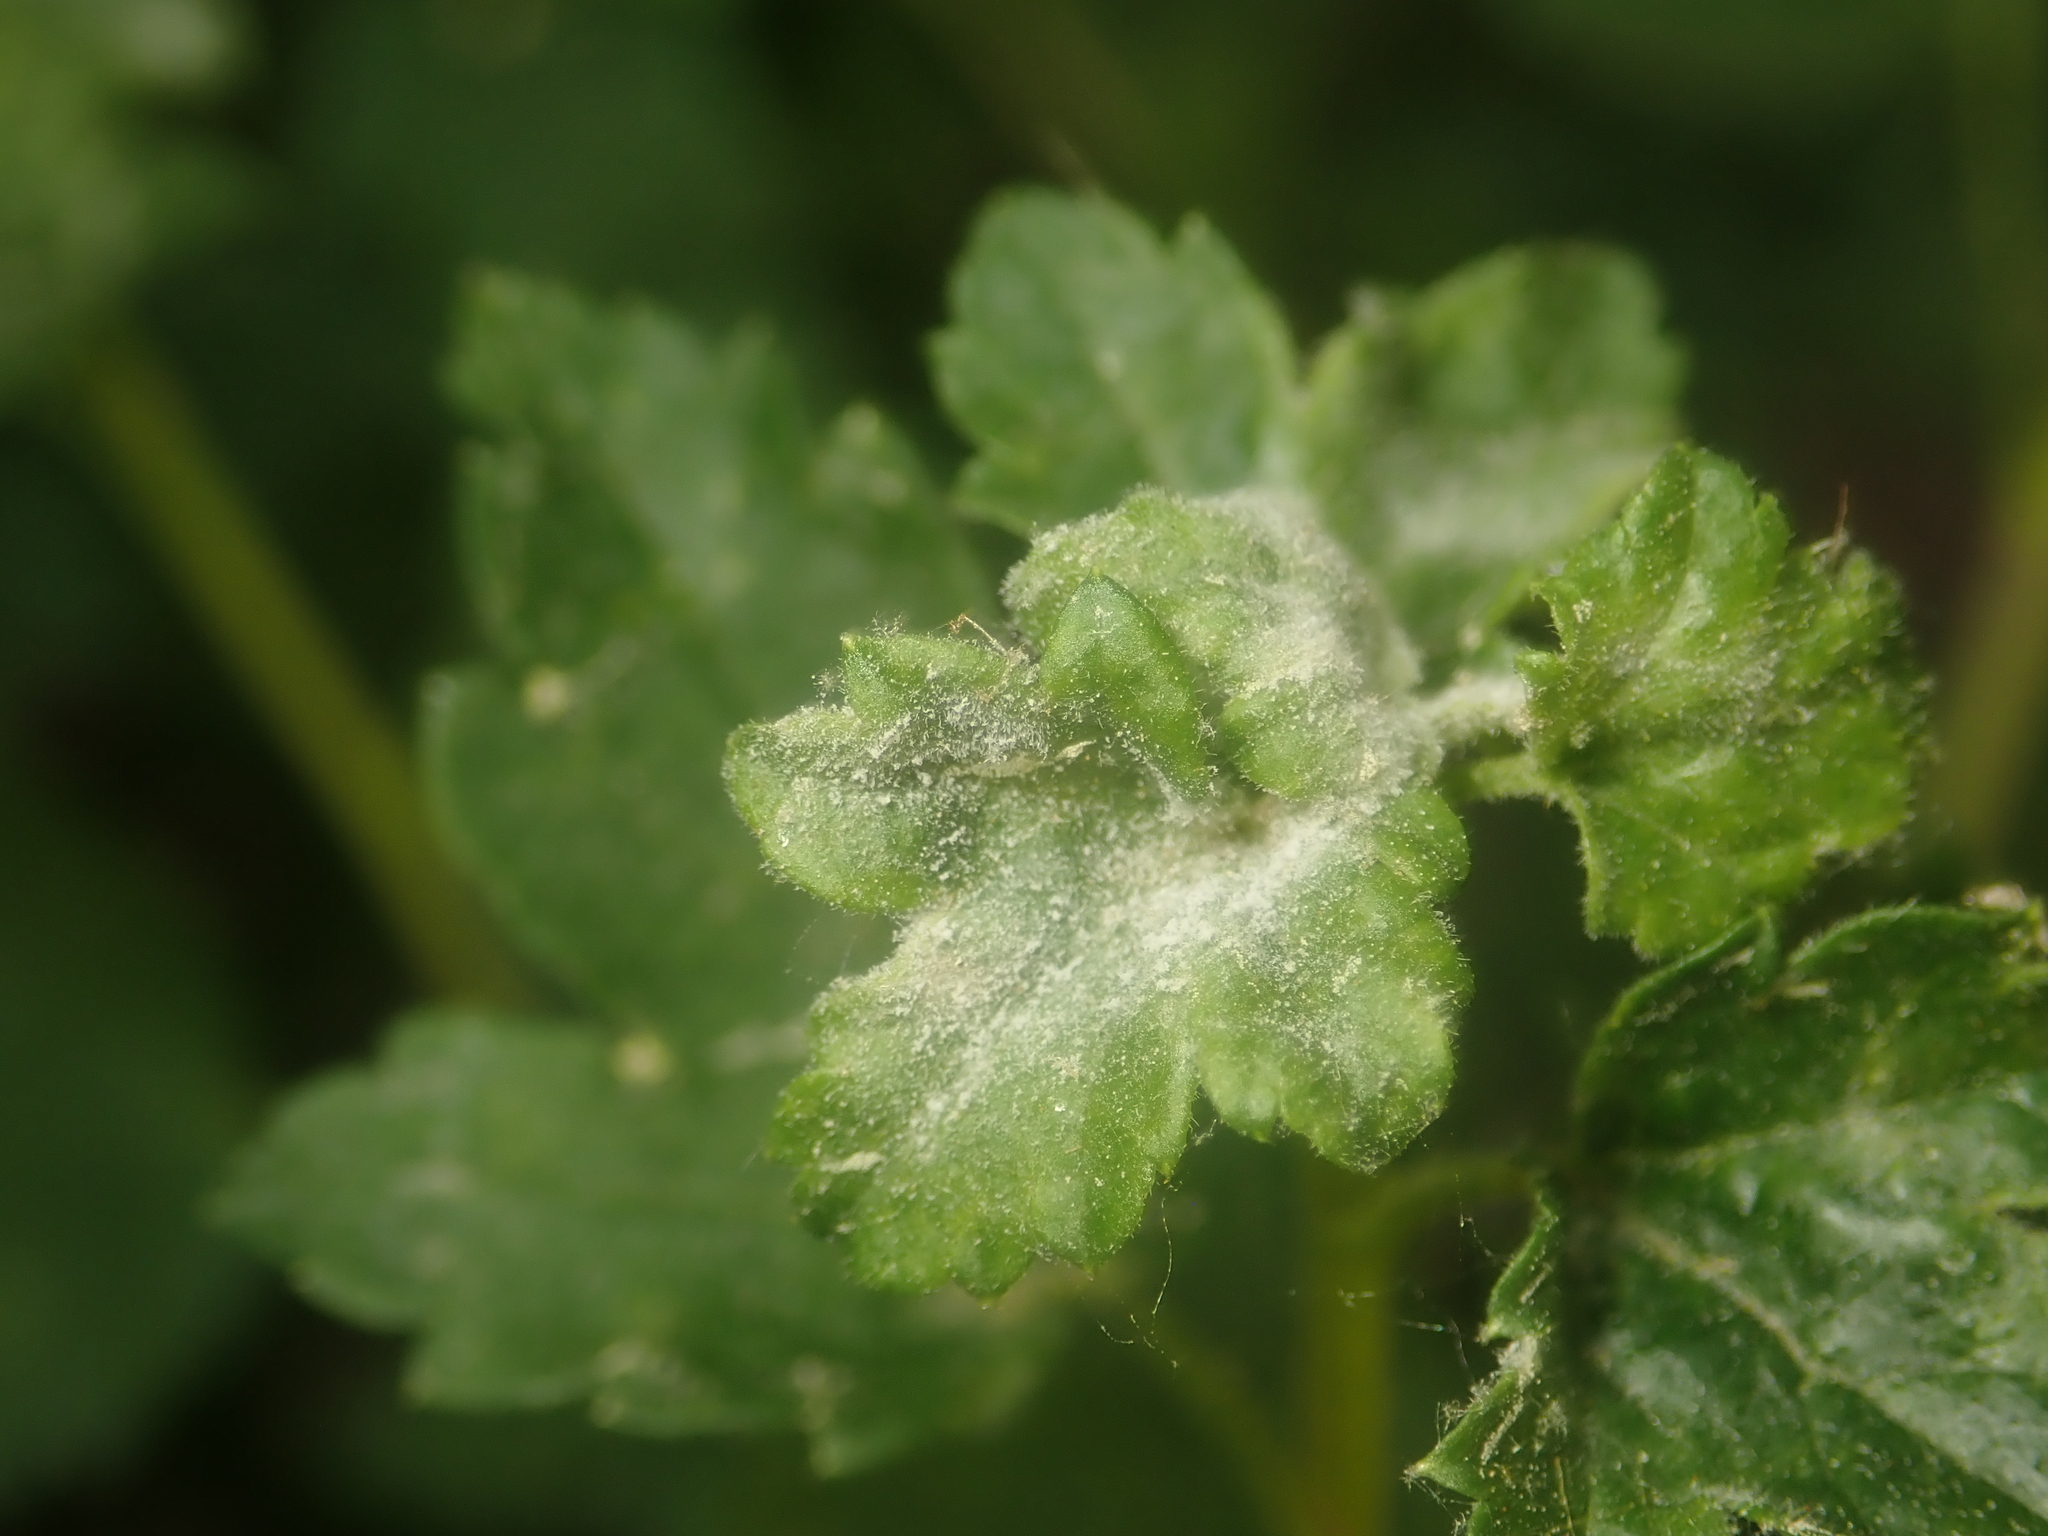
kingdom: Fungi
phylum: Ascomycota
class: Leotiomycetes
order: Helotiales
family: Erysiphaceae
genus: Podosphaera
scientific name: Podosphaera mors-uvae
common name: American gooseberry mildew
